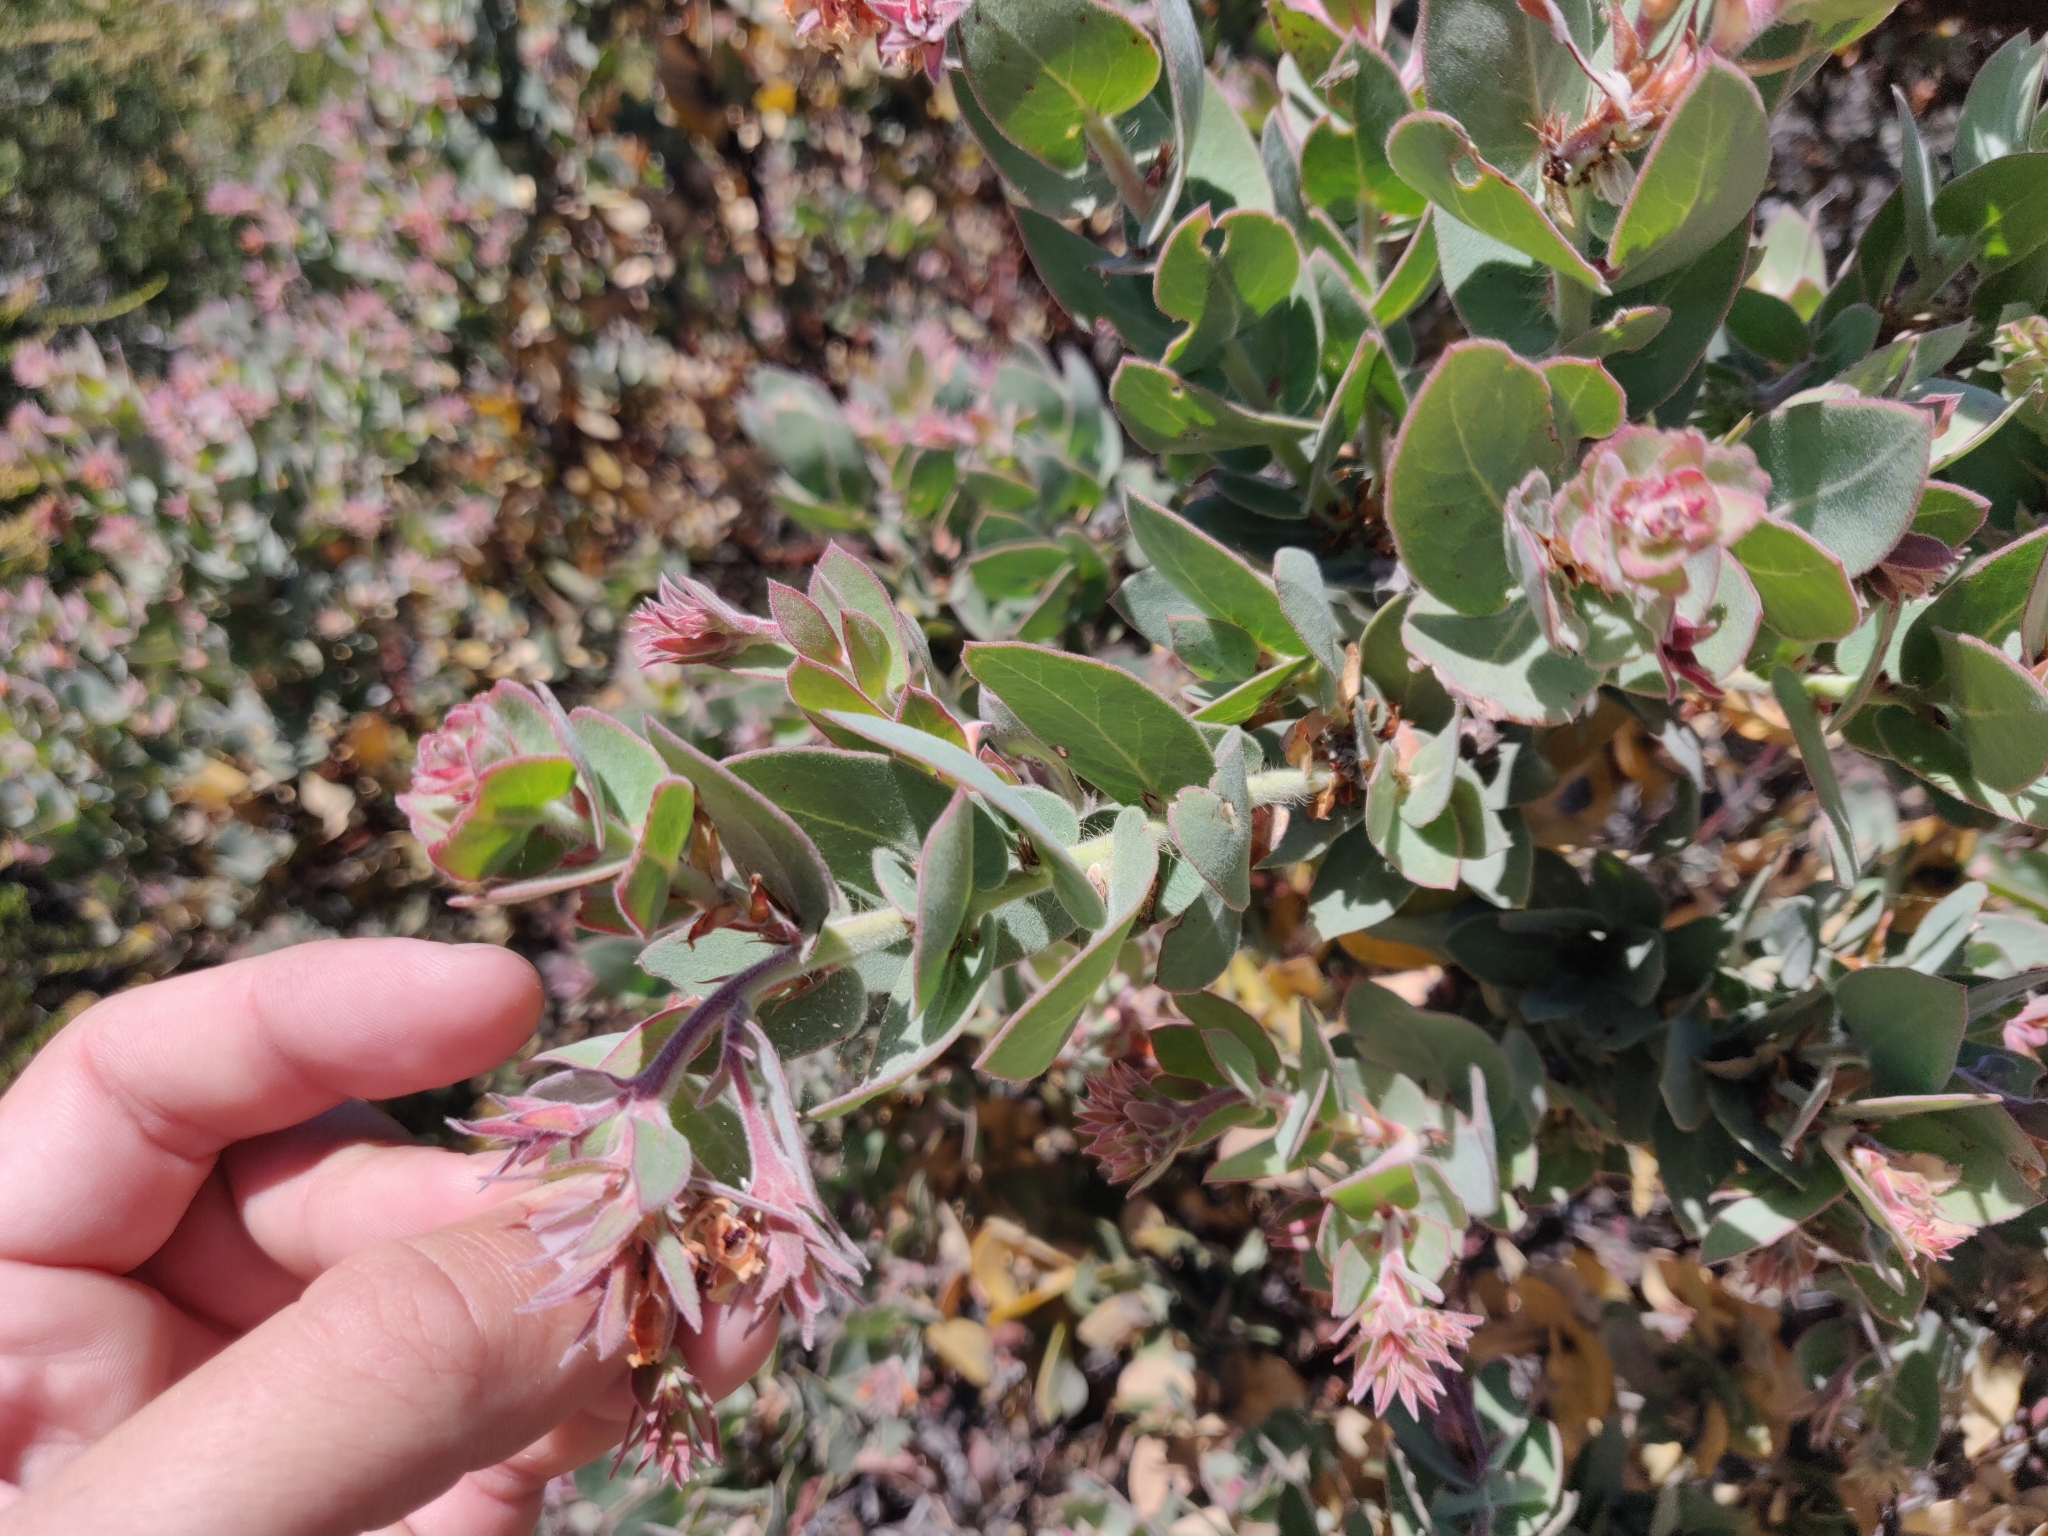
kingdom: Plantae
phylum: Tracheophyta
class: Magnoliopsida
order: Ericales
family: Ericaceae
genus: Arctostaphylos
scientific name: Arctostaphylos auriculata
